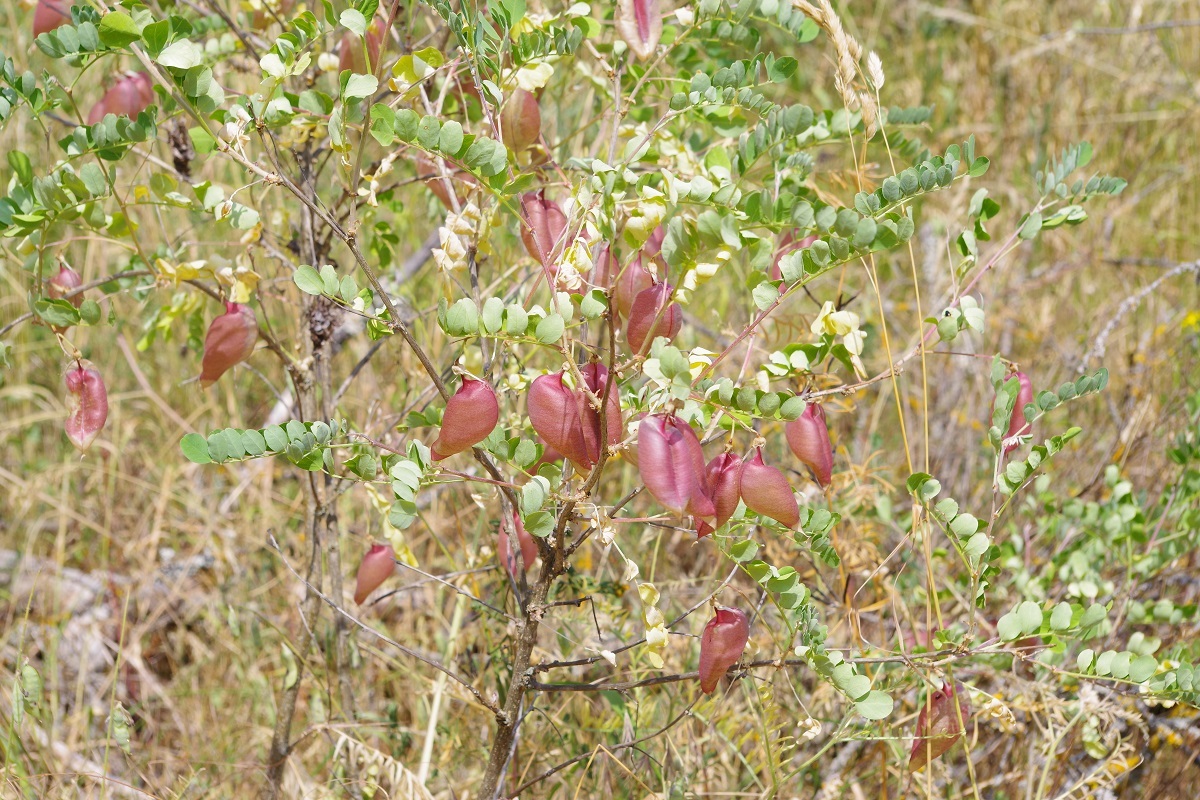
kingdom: Plantae
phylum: Tracheophyta
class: Magnoliopsida
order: Fabales
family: Fabaceae
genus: Colutea
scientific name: Colutea arborescens
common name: Bladder-senna
